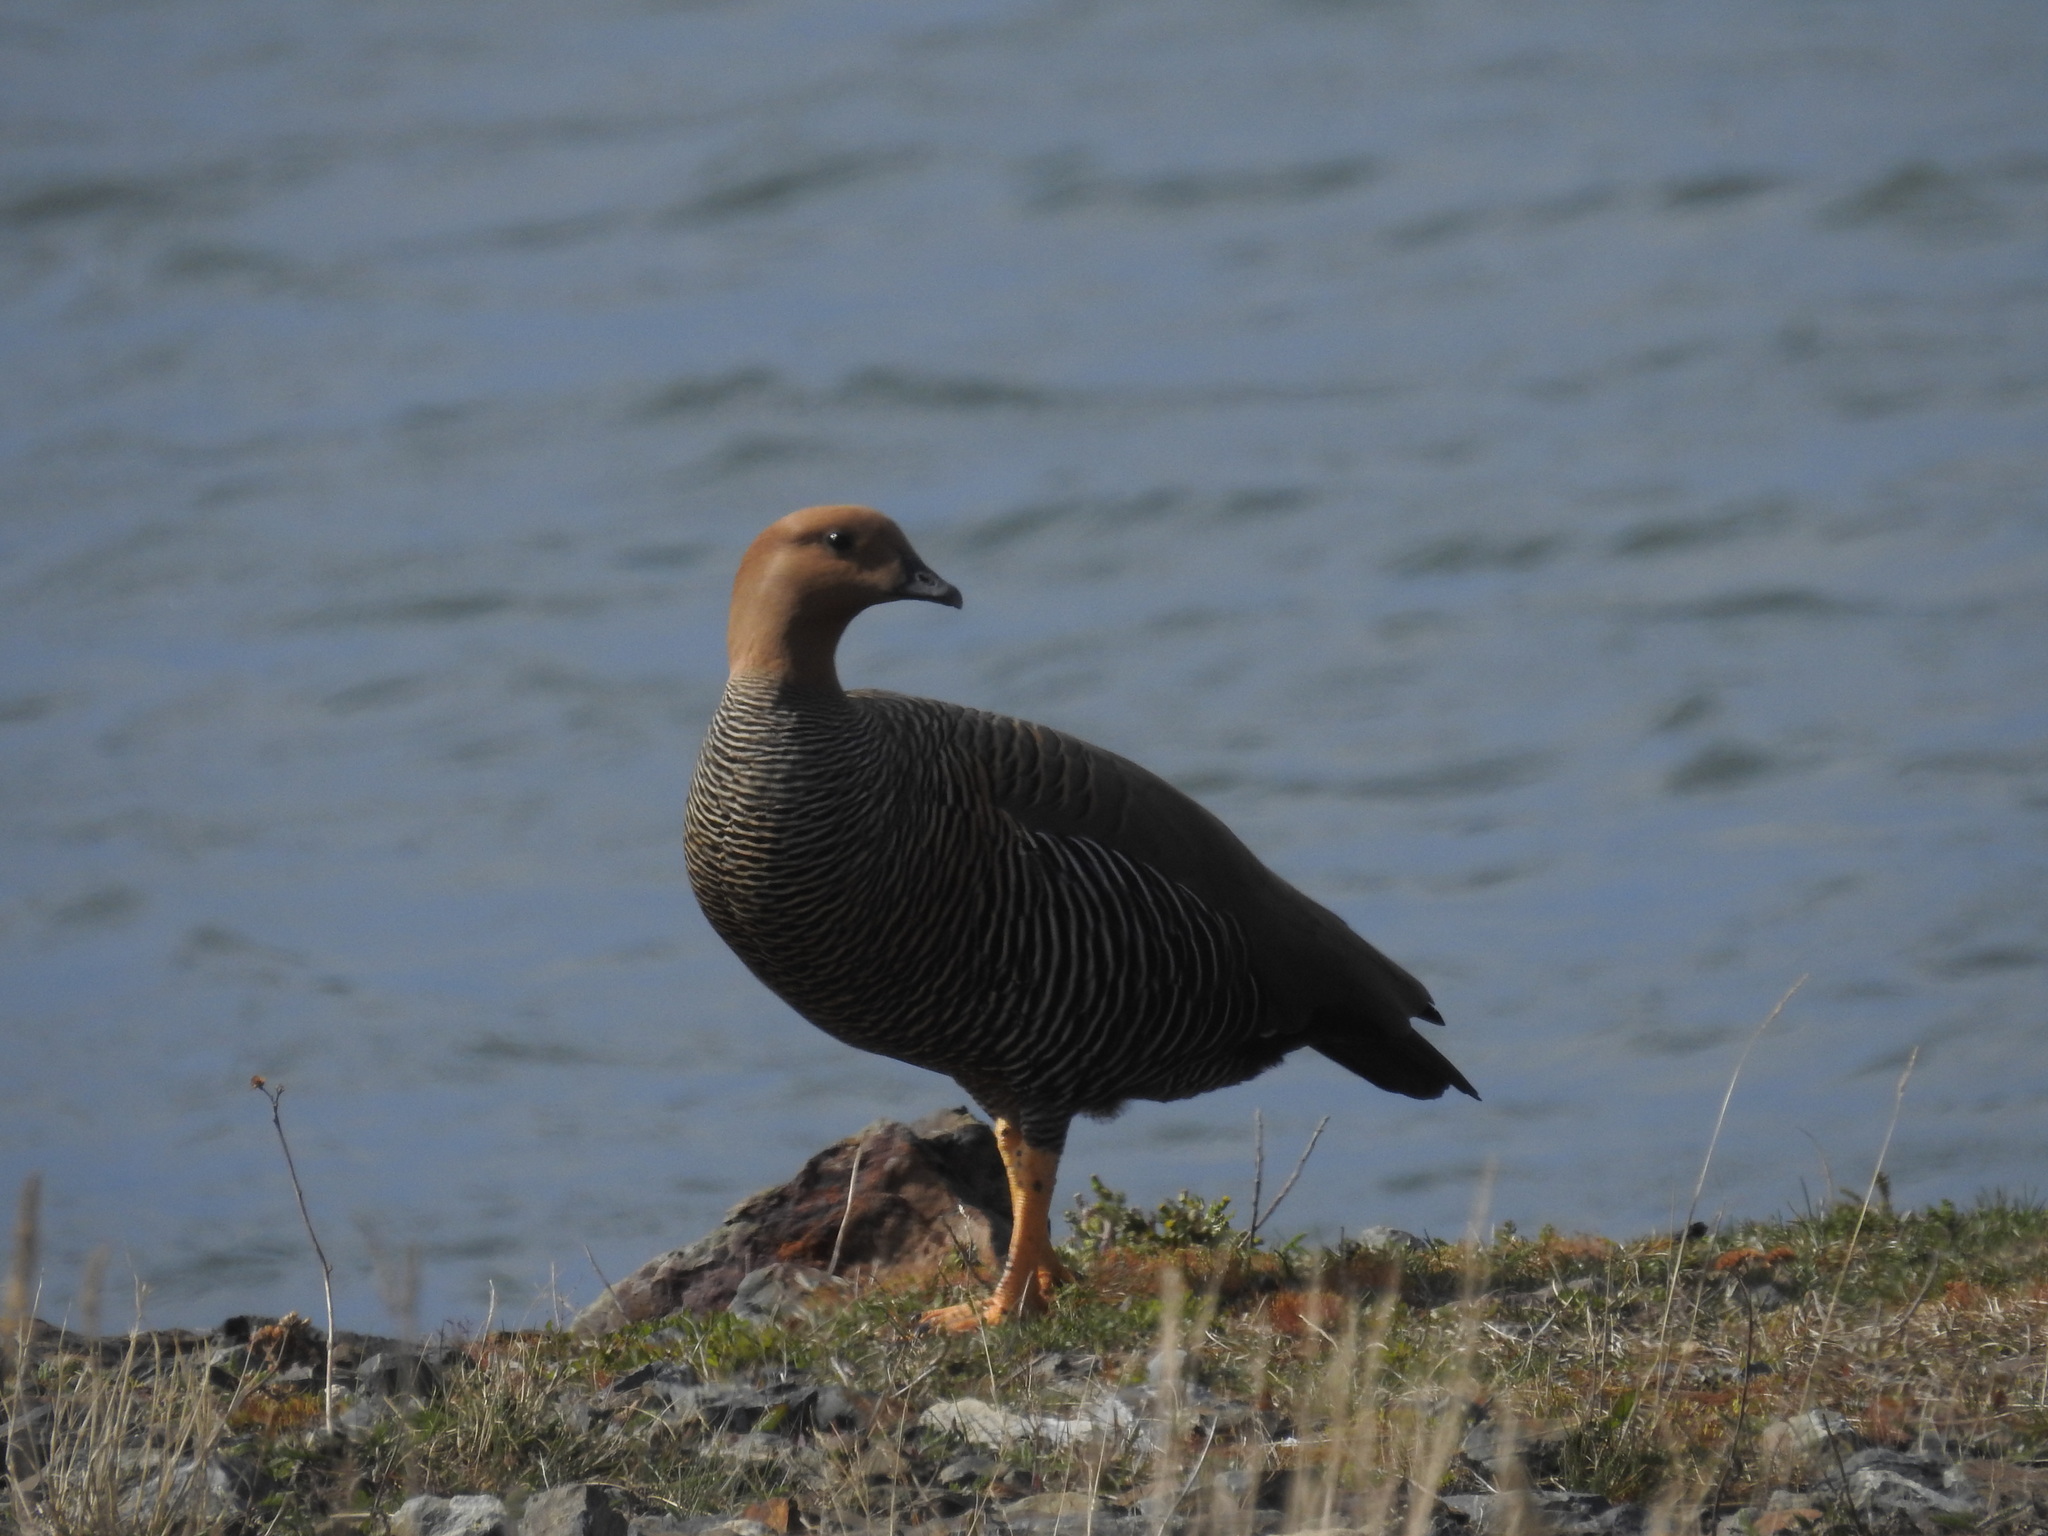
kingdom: Animalia
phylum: Chordata
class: Aves
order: Anseriformes
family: Anatidae
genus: Chloephaga
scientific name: Chloephaga picta
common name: Upland goose
